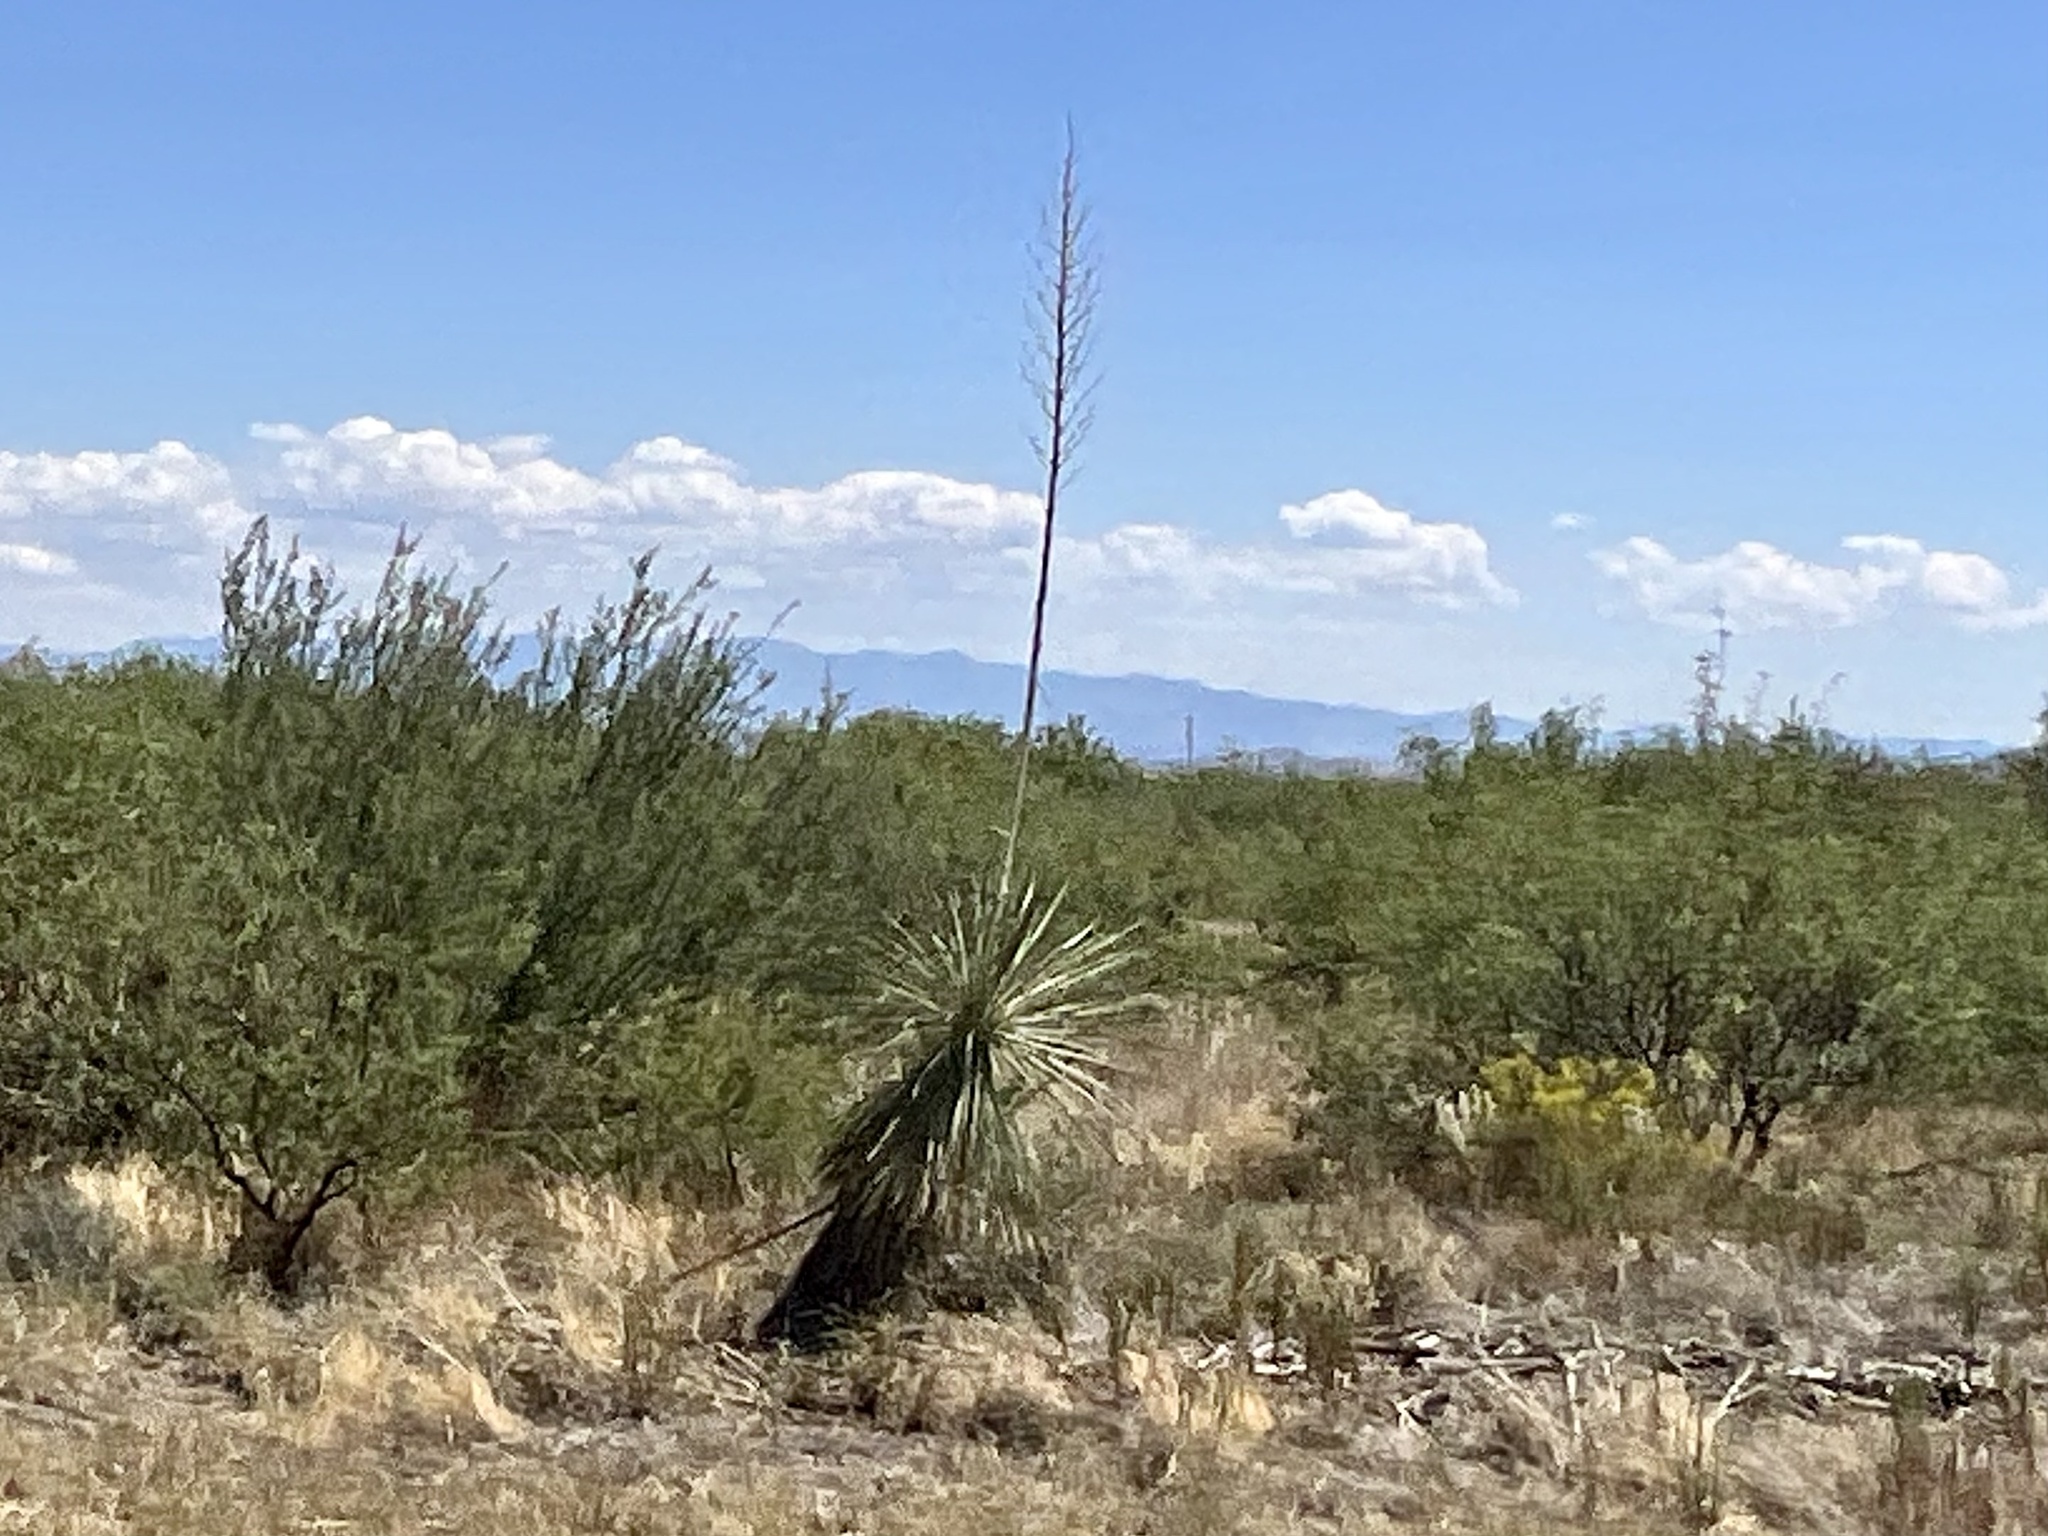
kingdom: Plantae
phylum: Tracheophyta
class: Liliopsida
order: Asparagales
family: Asparagaceae
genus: Yucca
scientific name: Yucca elata
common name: Palmella
